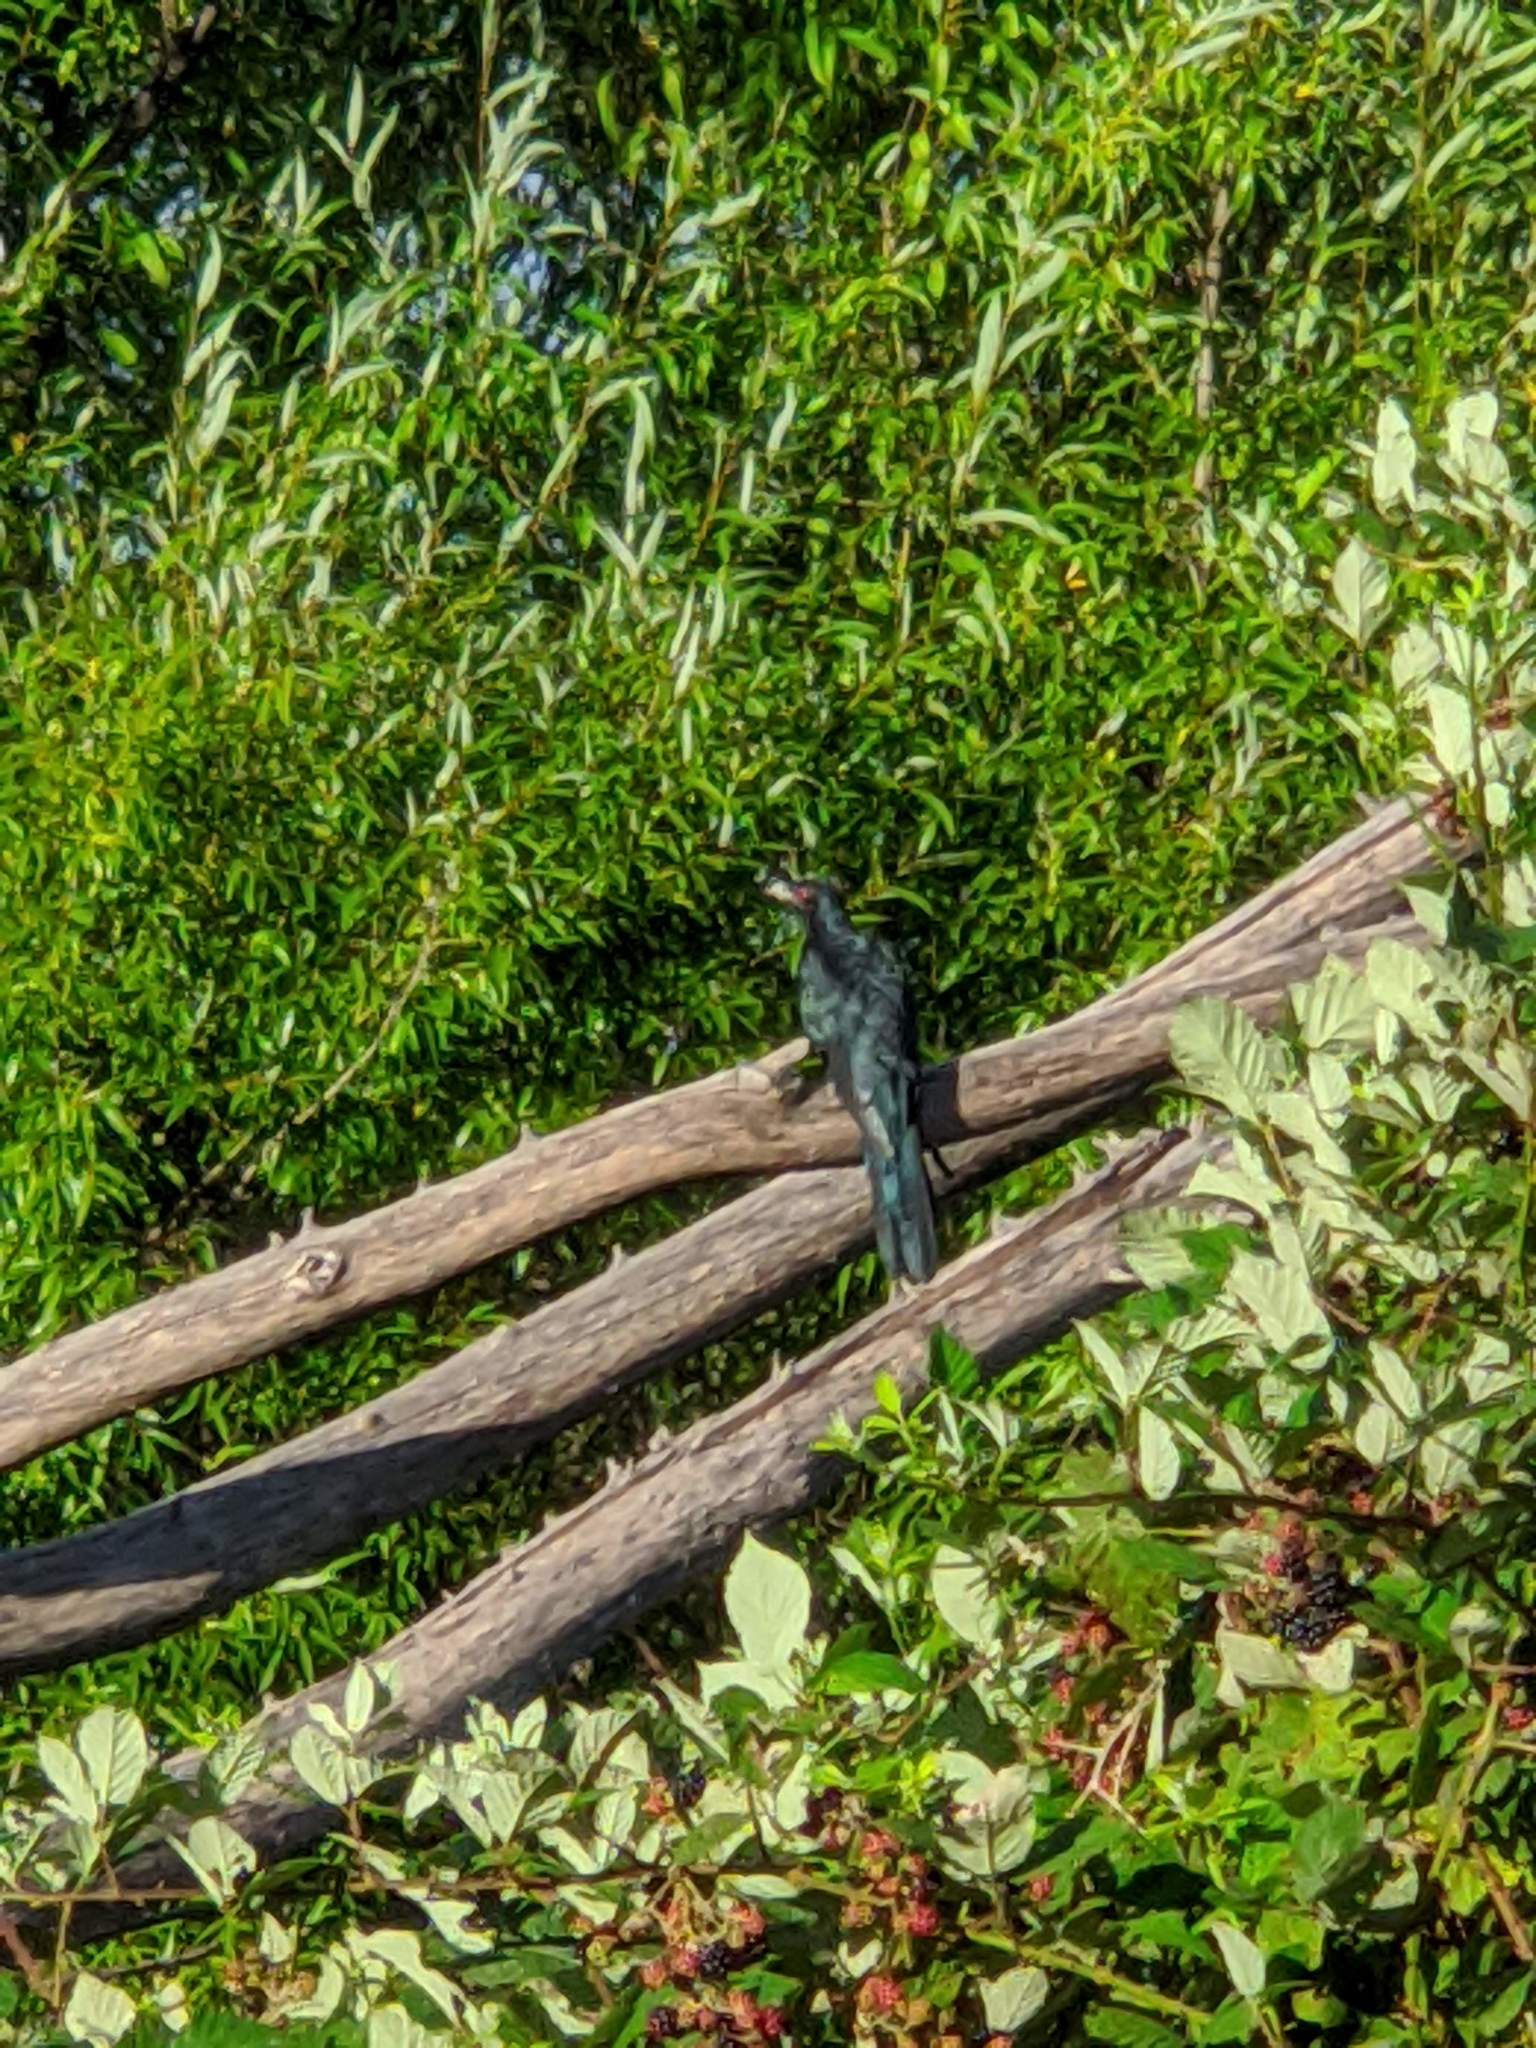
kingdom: Animalia
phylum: Chordata
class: Aves
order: Cuculiformes
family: Cuculidae
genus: Eudynamys
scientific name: Eudynamys orientalis
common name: Pacific koel
